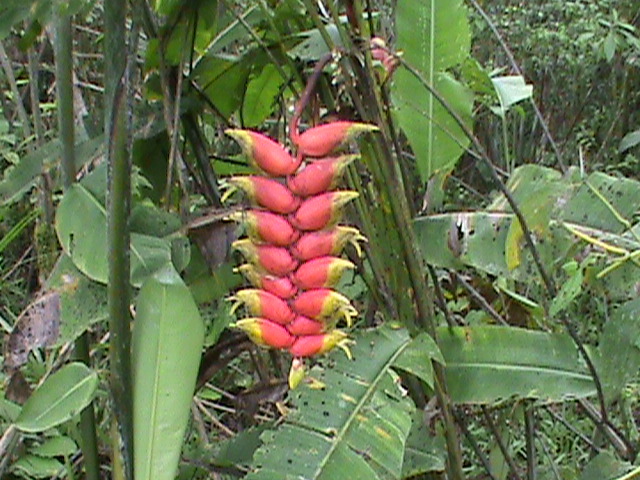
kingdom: Plantae
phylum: Tracheophyta
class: Liliopsida
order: Zingiberales
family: Heliconiaceae
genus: Heliconia
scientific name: Heliconia rostrata
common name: False bird of paradise
